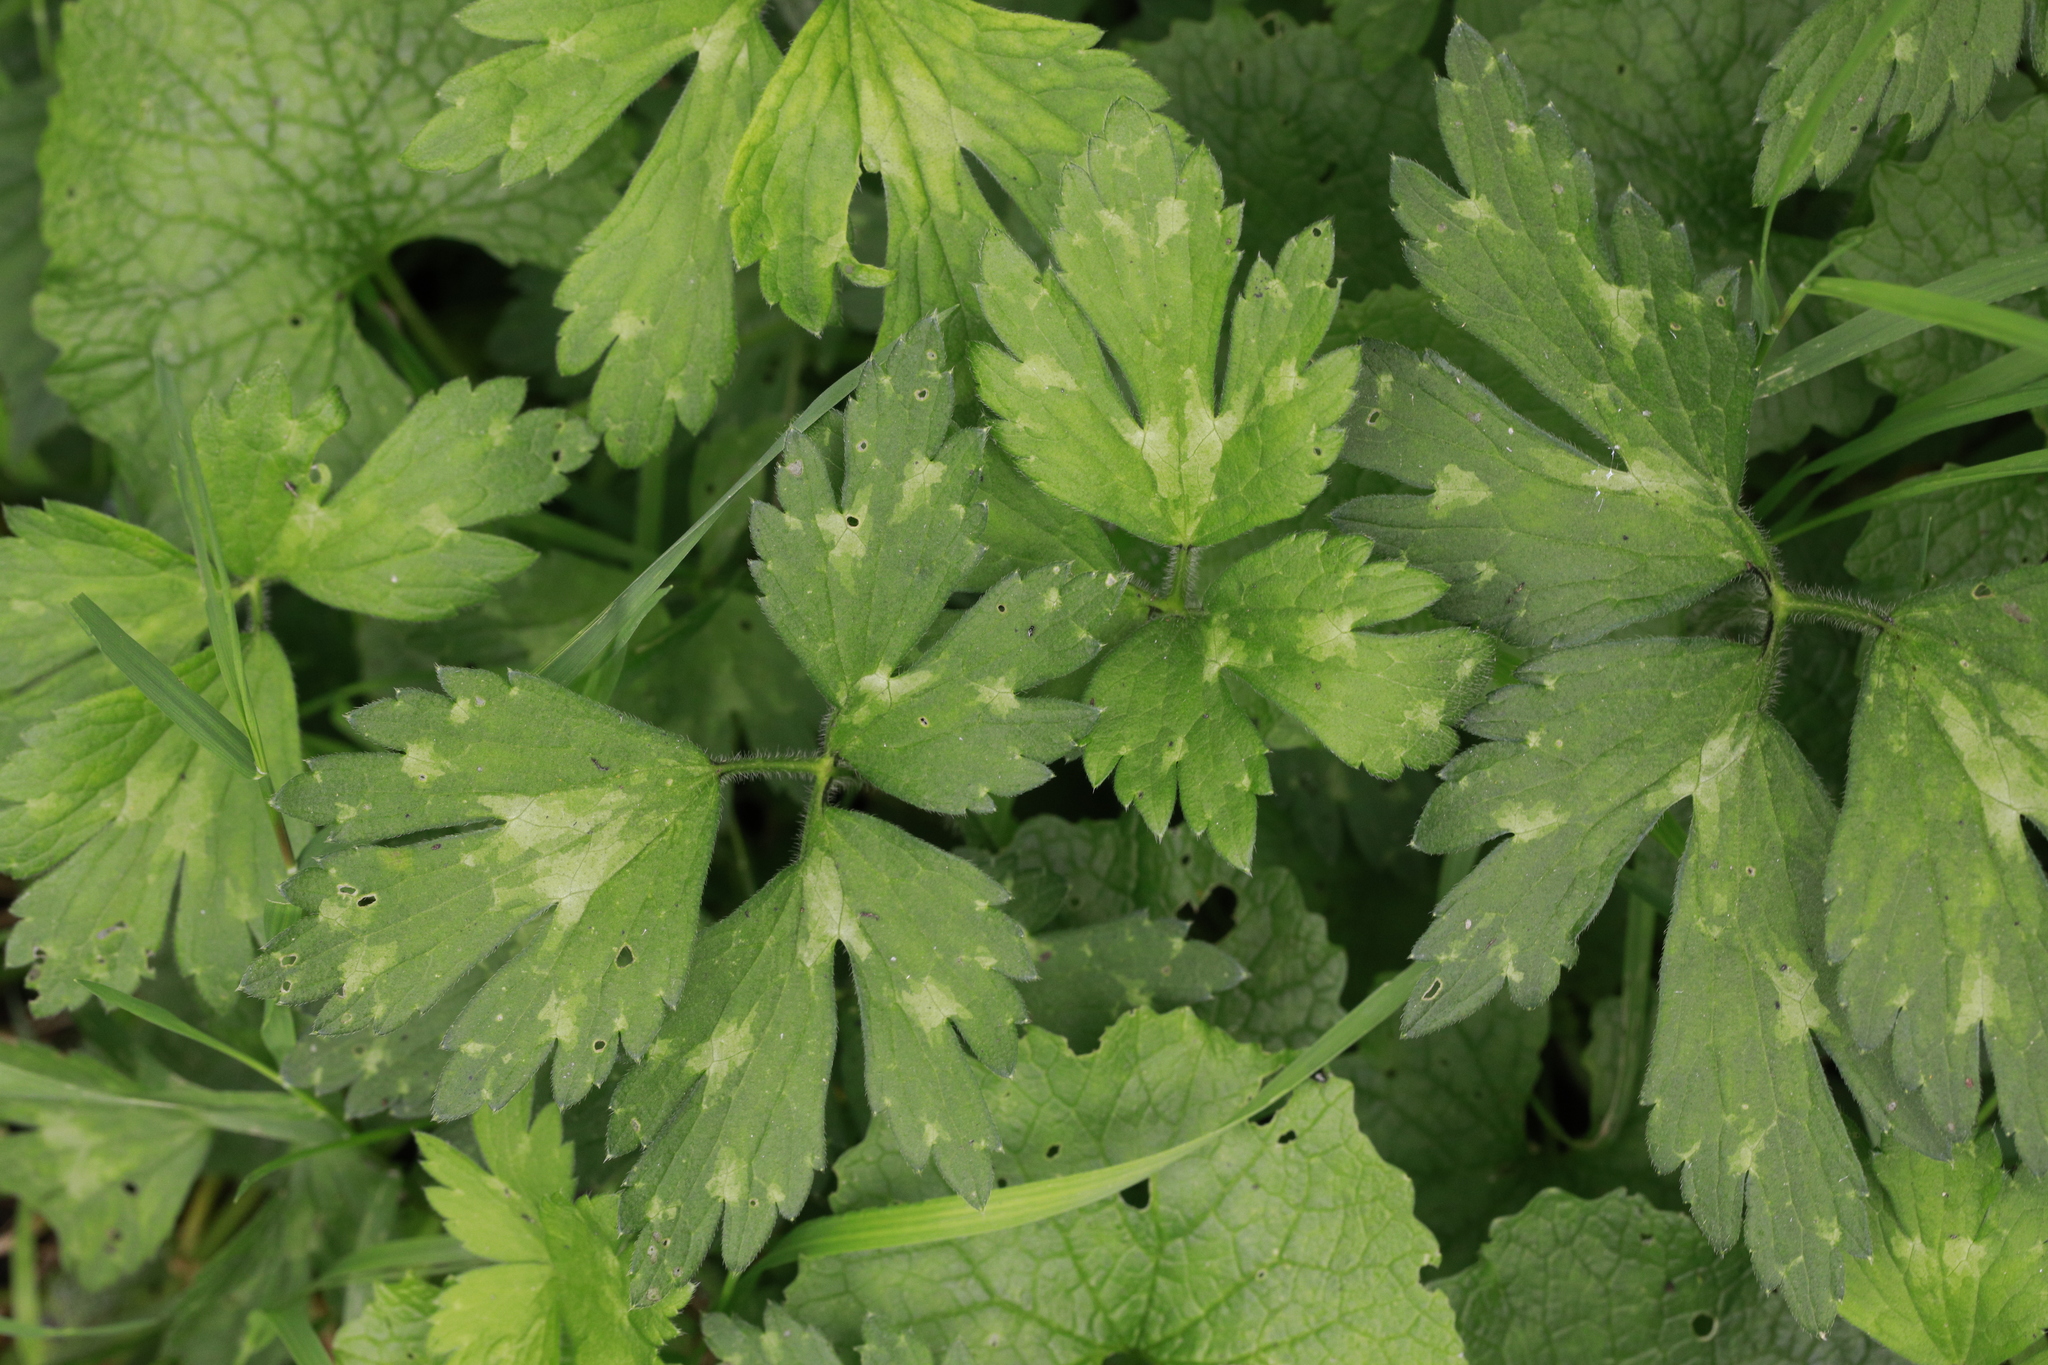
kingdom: Plantae
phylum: Tracheophyta
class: Magnoliopsida
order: Ranunculales
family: Ranunculaceae
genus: Ranunculus
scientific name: Ranunculus repens
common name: Creeping buttercup
